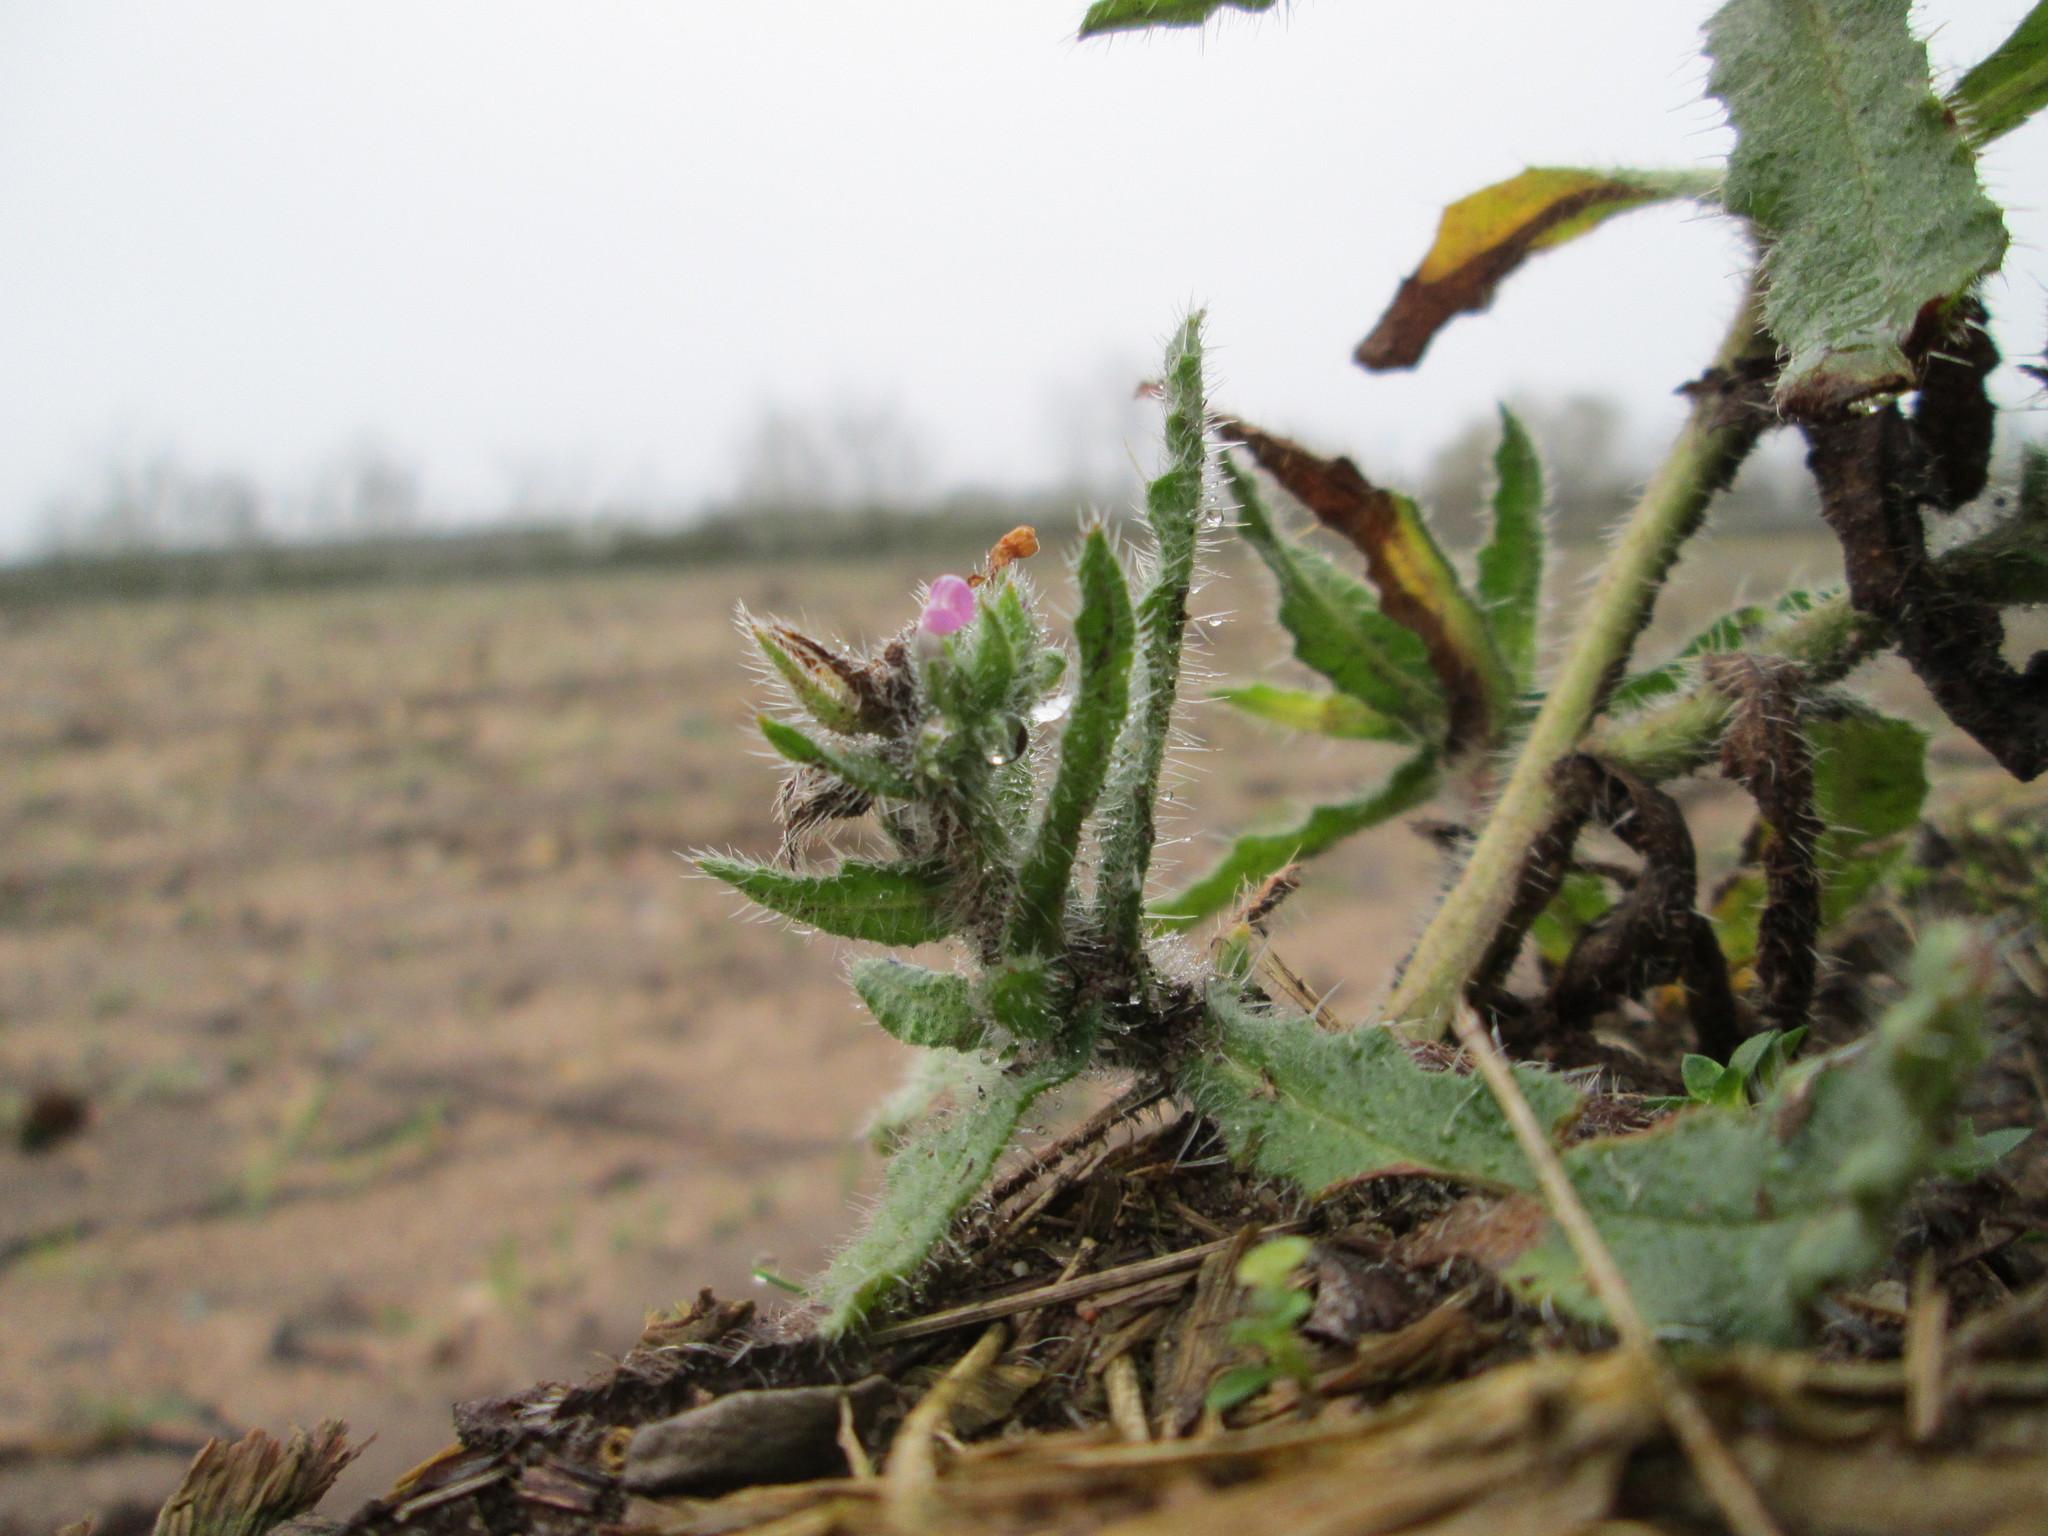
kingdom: Plantae
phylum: Tracheophyta
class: Magnoliopsida
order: Boraginales
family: Boraginaceae
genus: Lycopsis
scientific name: Lycopsis arvensis
